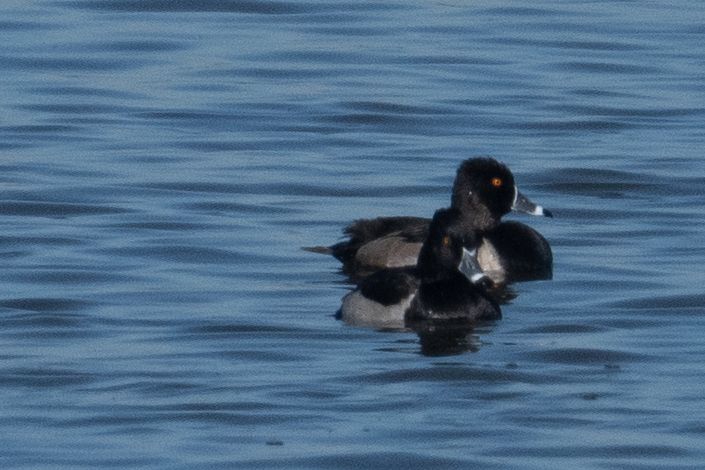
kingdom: Animalia
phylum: Chordata
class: Aves
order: Anseriformes
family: Anatidae
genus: Aythya
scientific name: Aythya collaris
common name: Ring-necked duck
